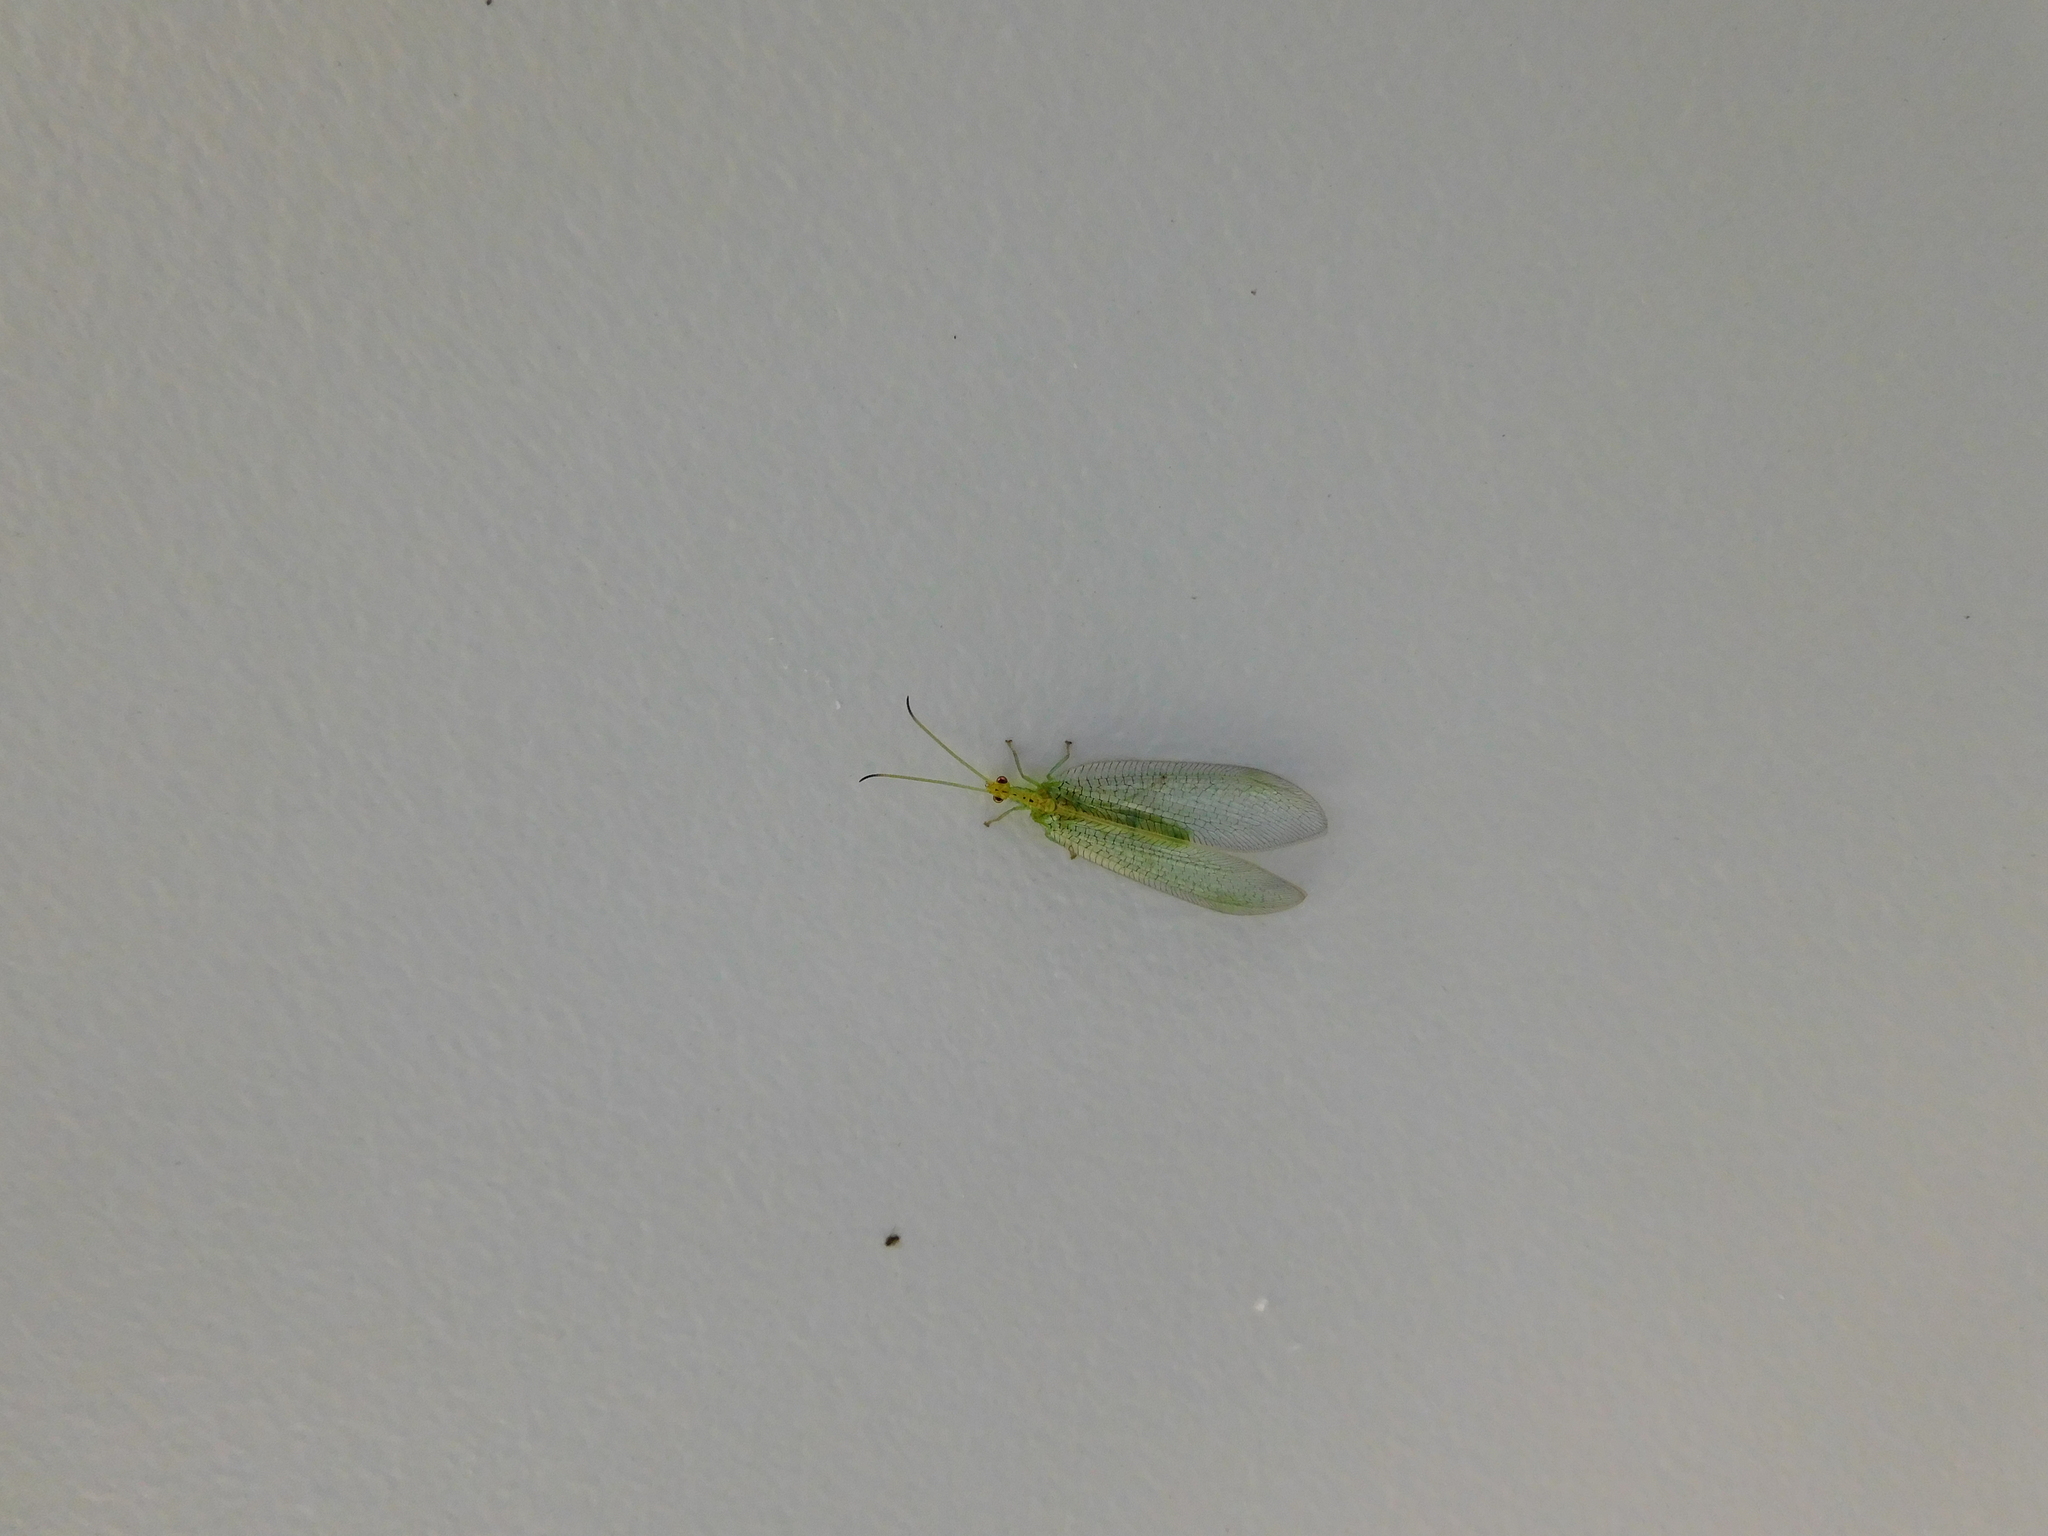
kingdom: Animalia
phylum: Arthropoda
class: Insecta
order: Neuroptera
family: Nymphidae
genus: Osmylops
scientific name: Osmylops sejunctus
